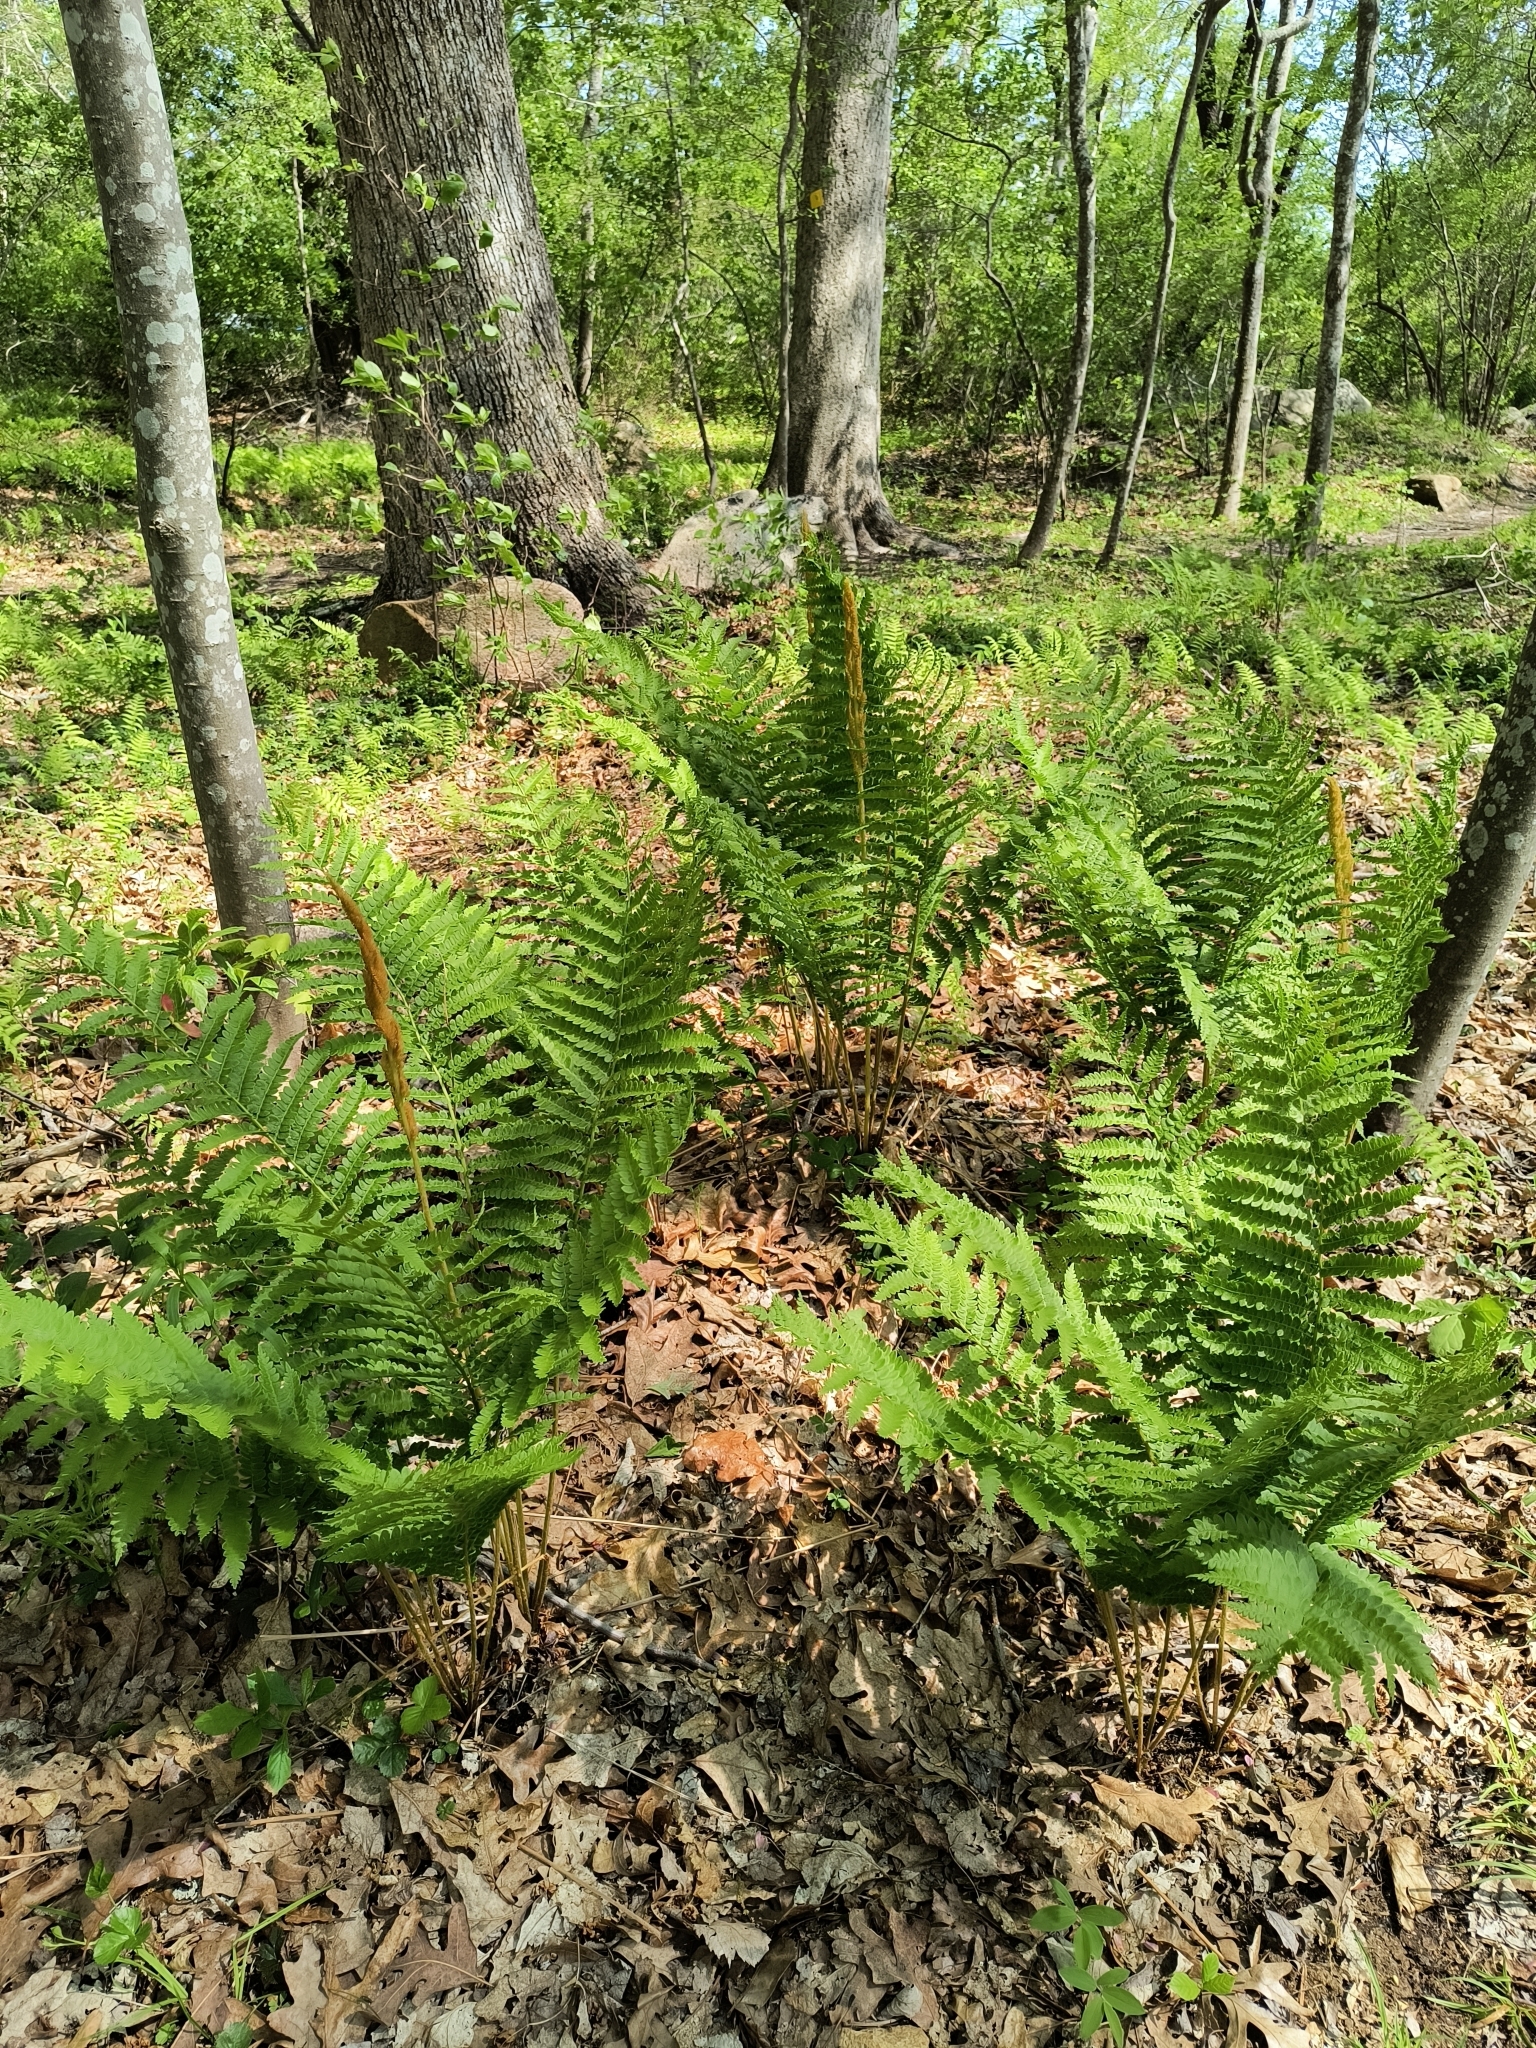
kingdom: Plantae
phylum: Tracheophyta
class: Polypodiopsida
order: Osmundales
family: Osmundaceae
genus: Osmundastrum
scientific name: Osmundastrum cinnamomeum
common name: Cinnamon fern
